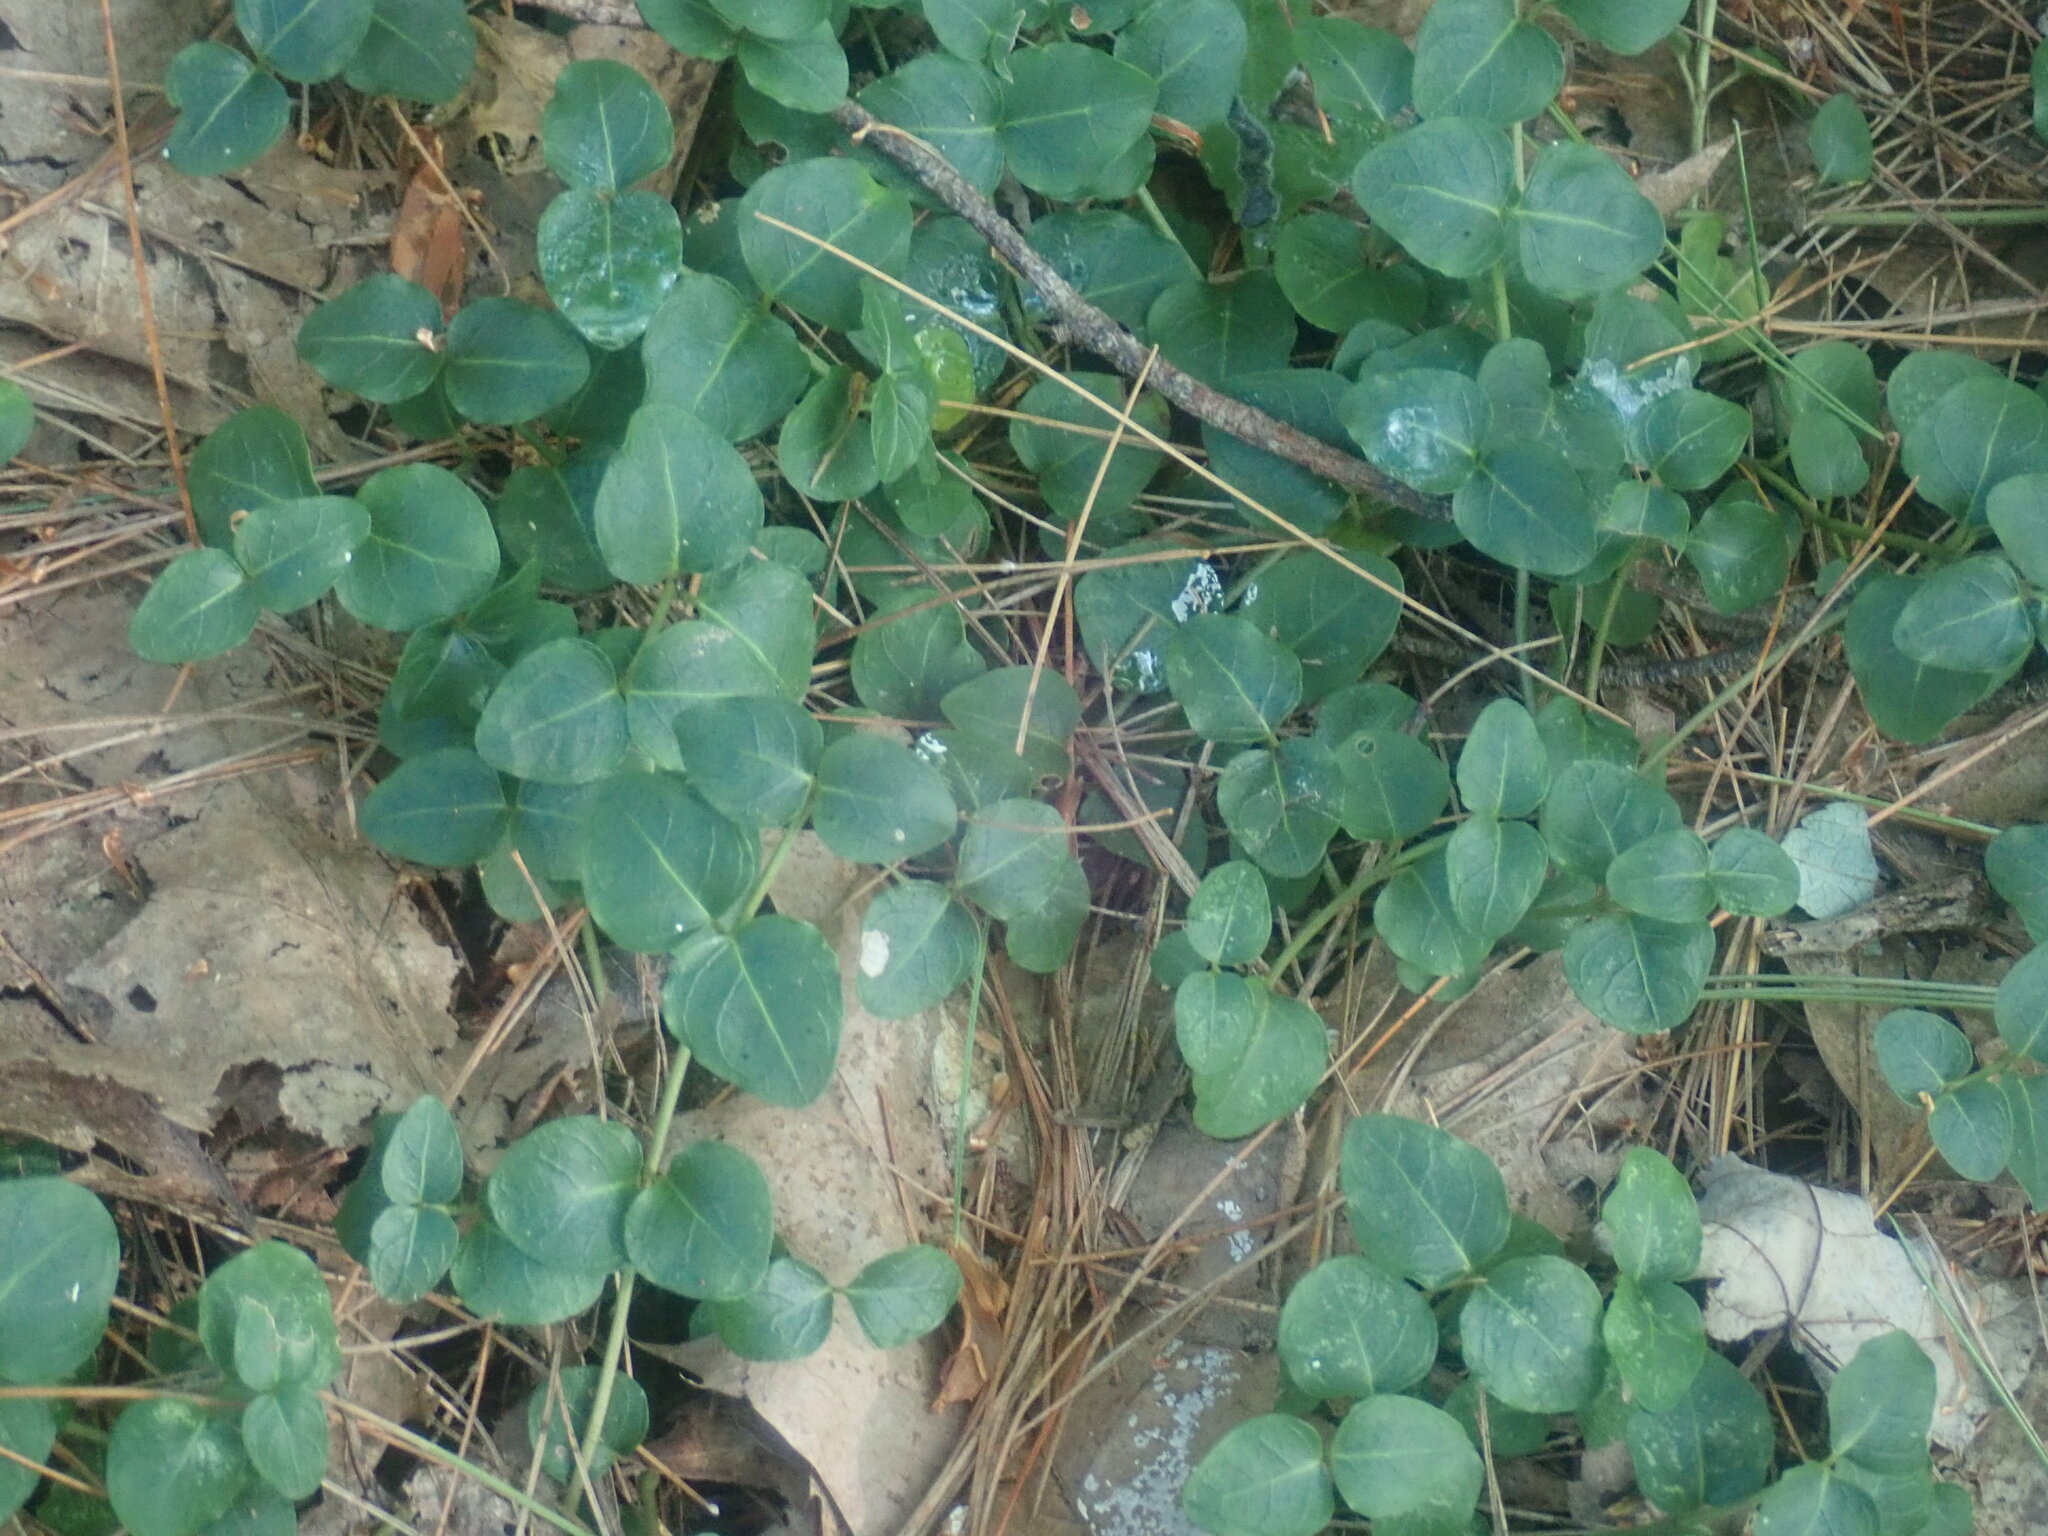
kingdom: Plantae
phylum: Tracheophyta
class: Magnoliopsida
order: Gentianales
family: Rubiaceae
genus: Mitchella
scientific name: Mitchella repens
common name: Partridge-berry
